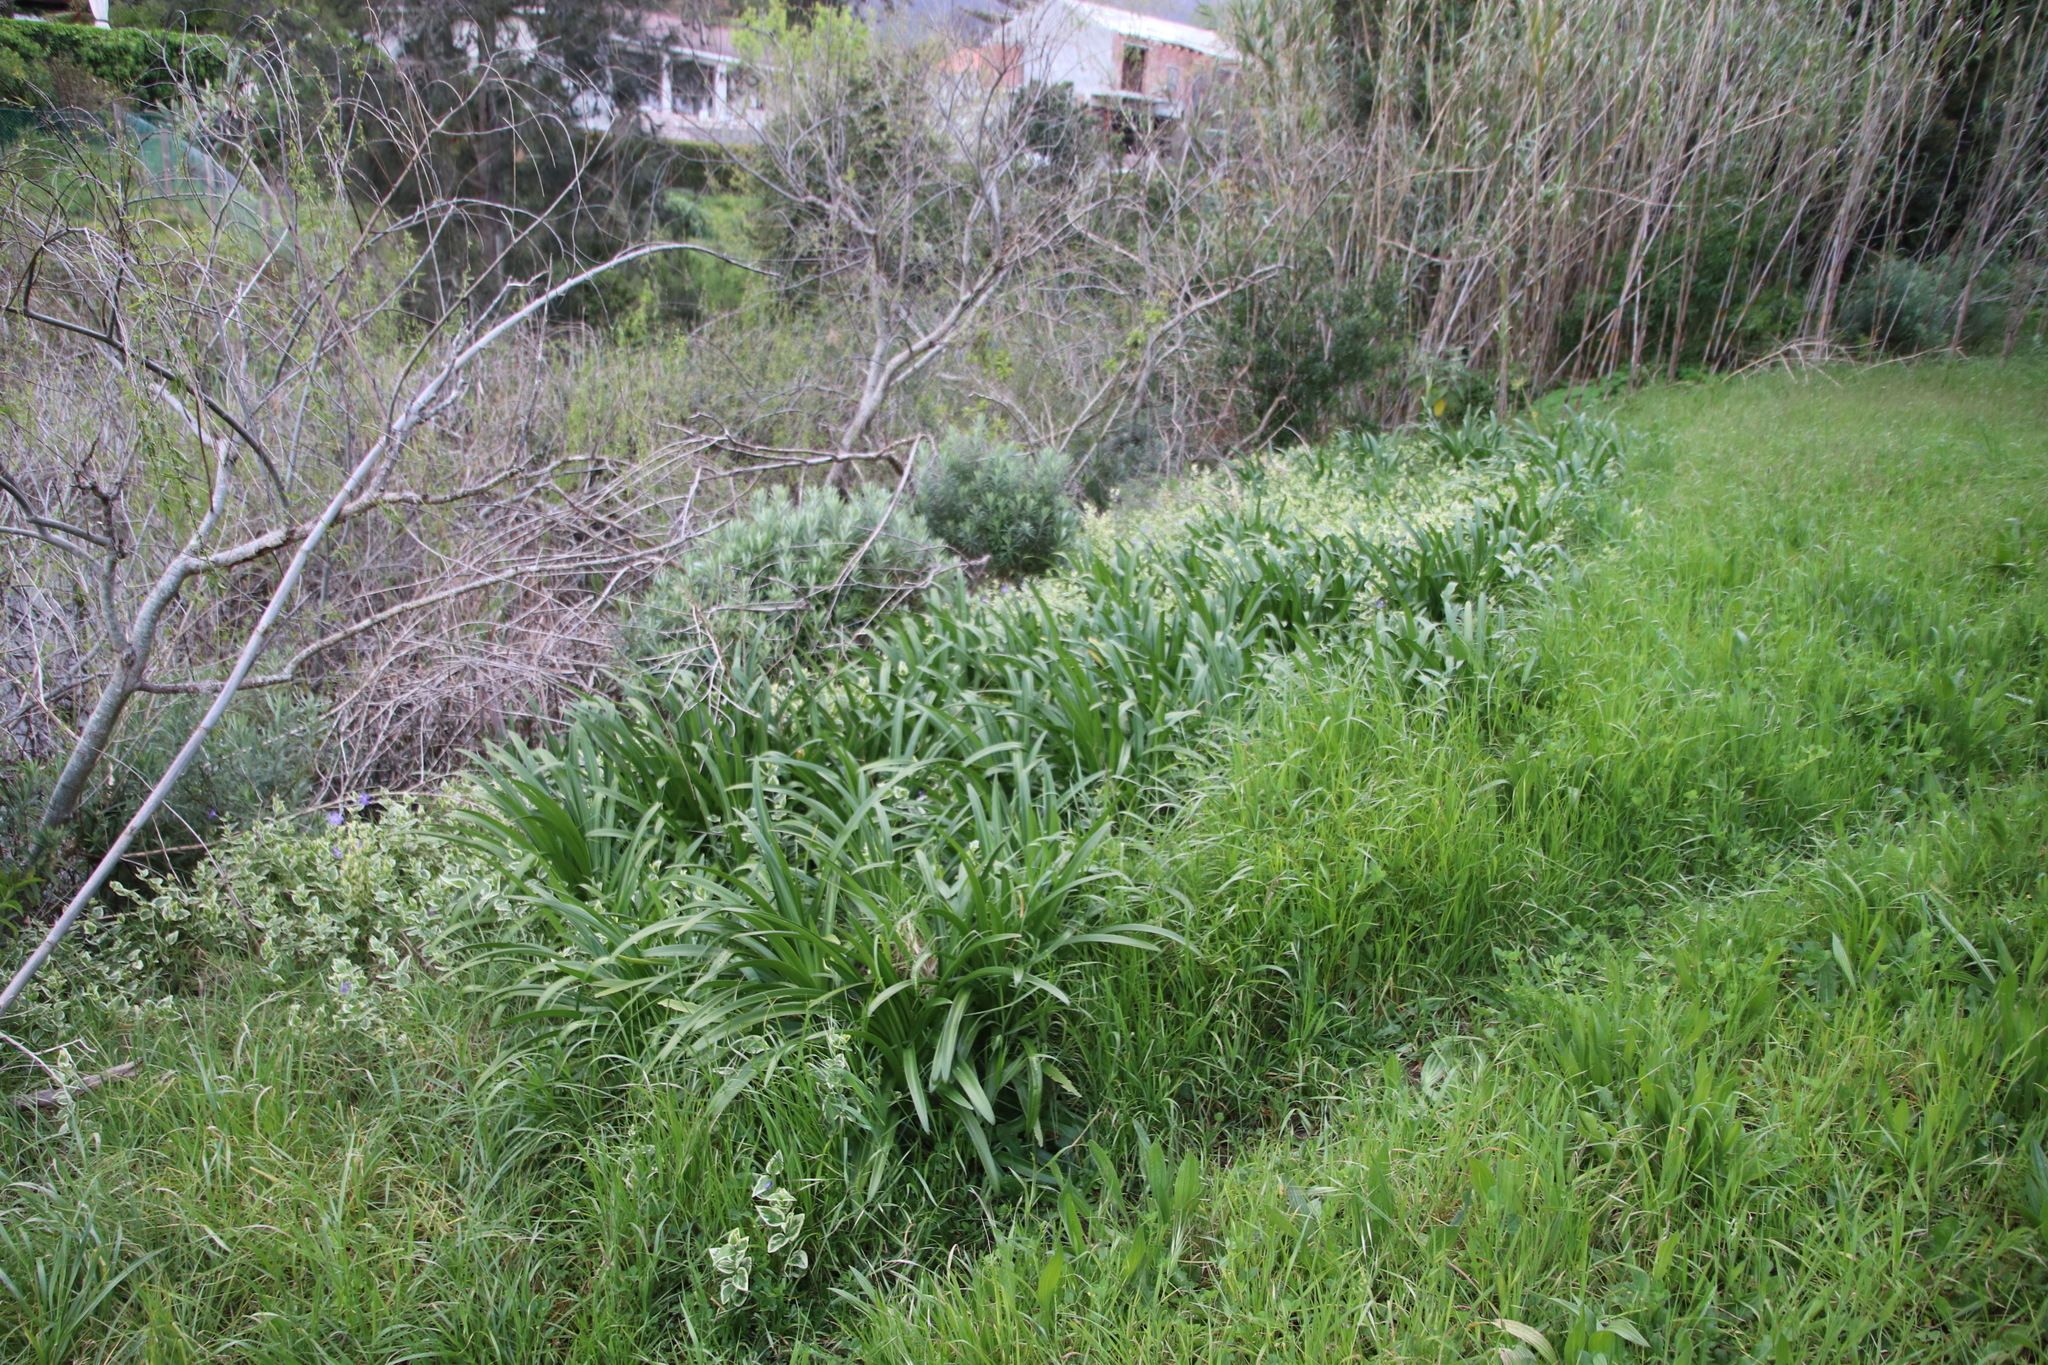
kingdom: Plantae
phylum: Tracheophyta
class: Liliopsida
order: Asparagales
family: Amaryllidaceae
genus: Agapanthus
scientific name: Agapanthus praecox
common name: African-lily
